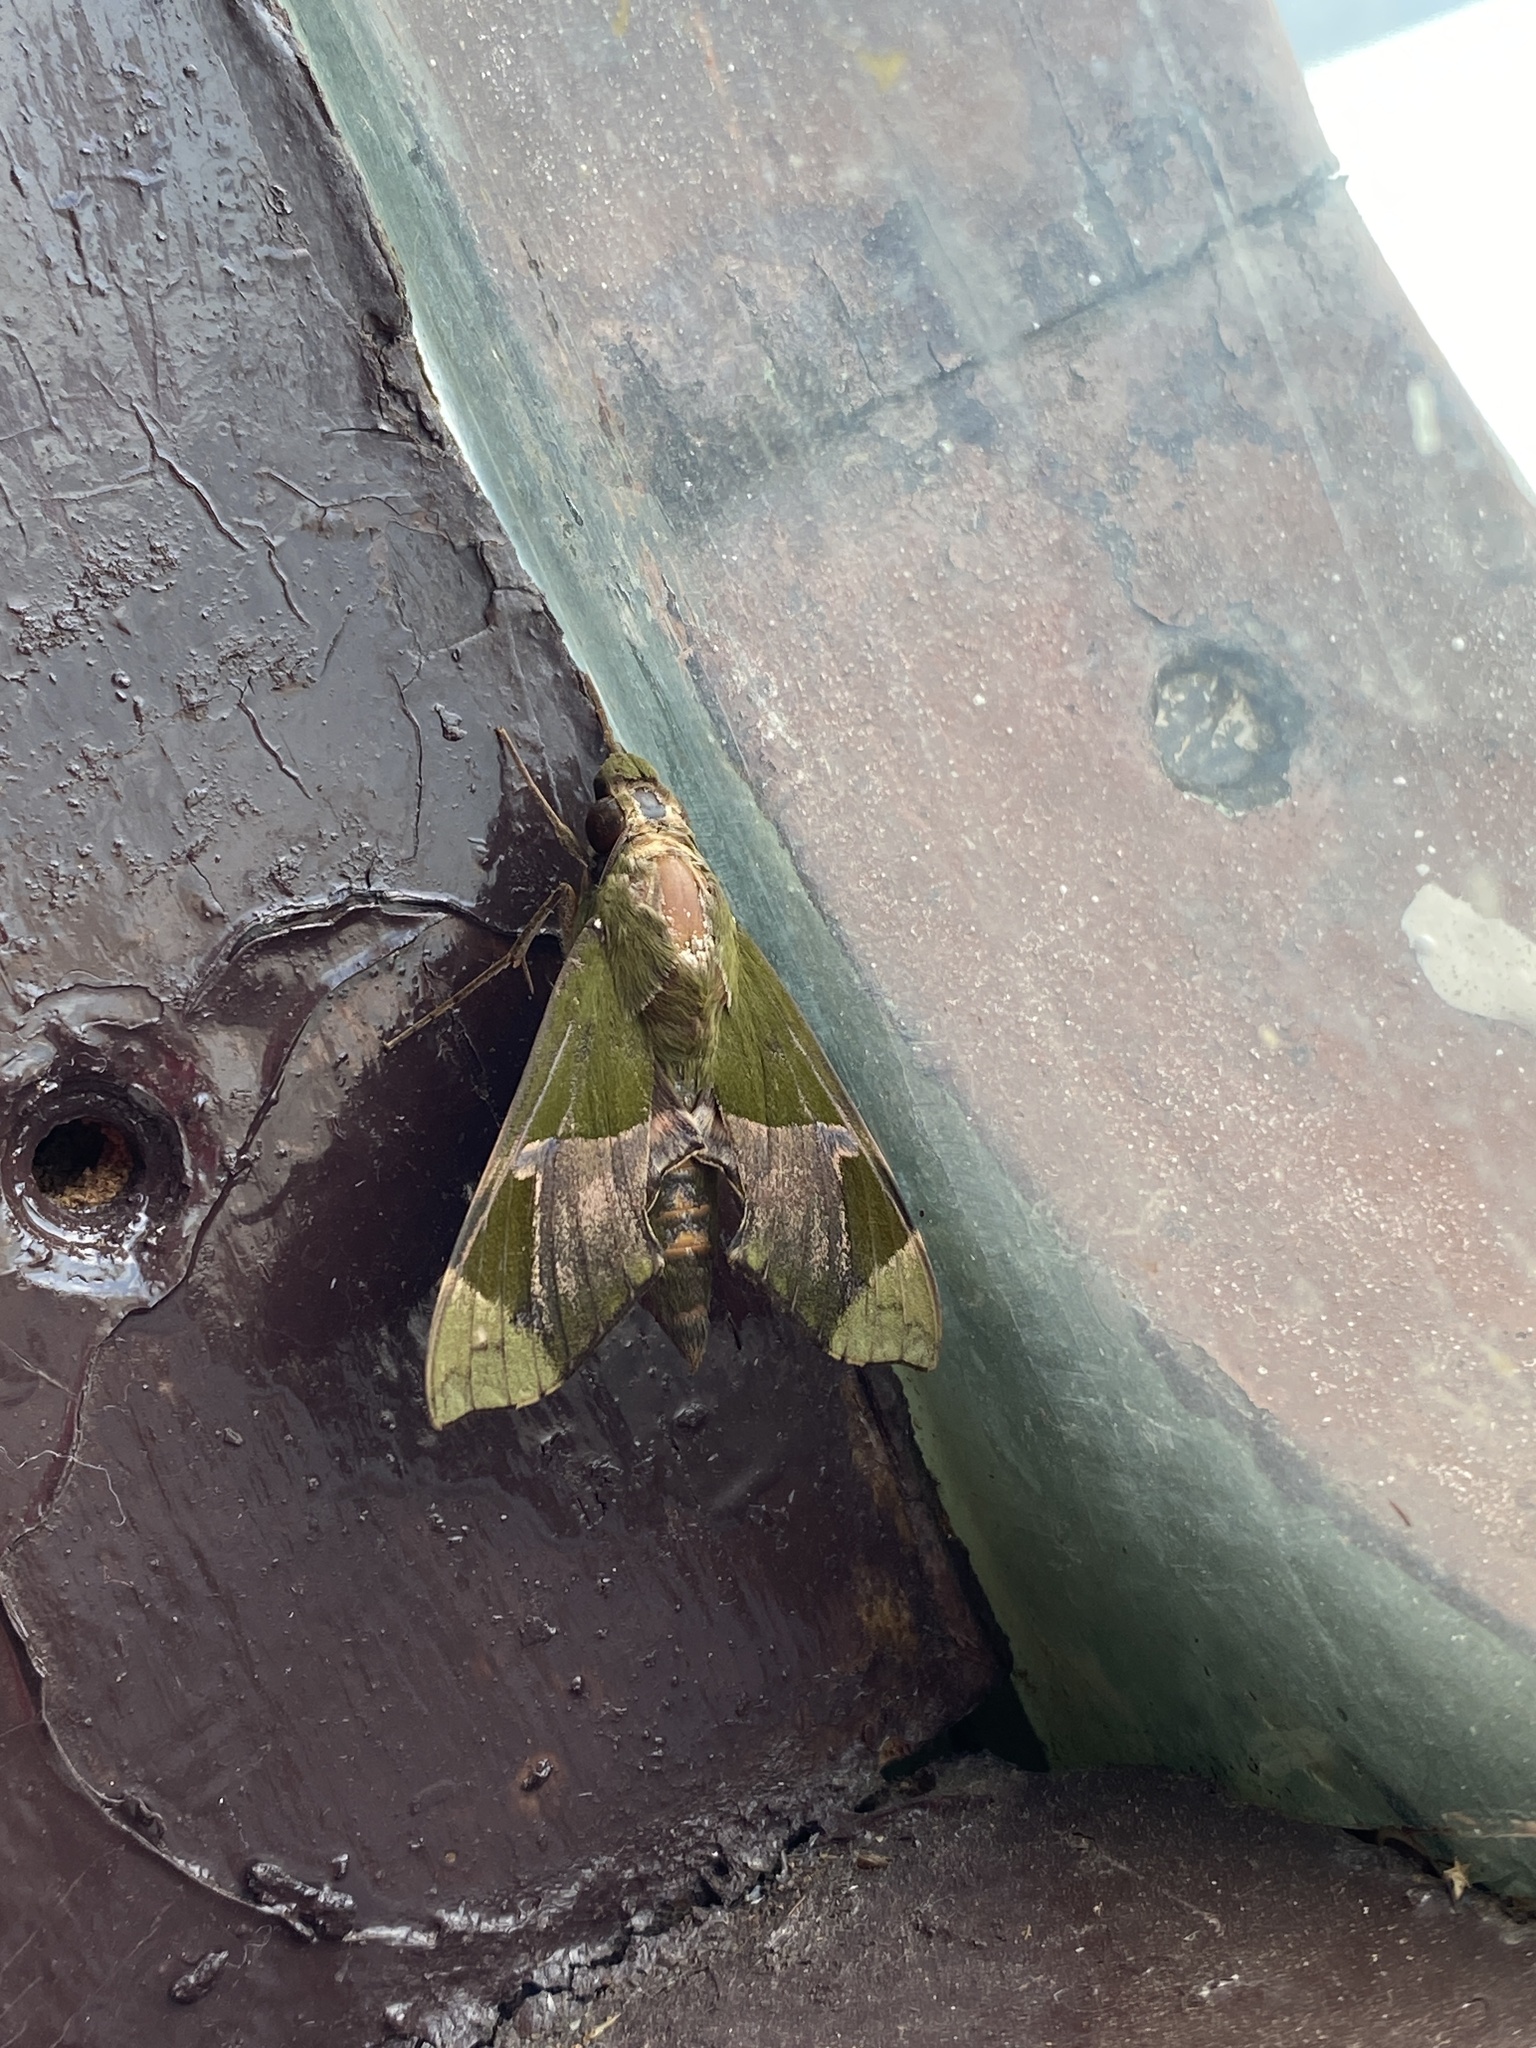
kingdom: Animalia
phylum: Arthropoda
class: Insecta
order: Lepidoptera
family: Sphingidae
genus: Angonyx
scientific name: Angonyx testacea
